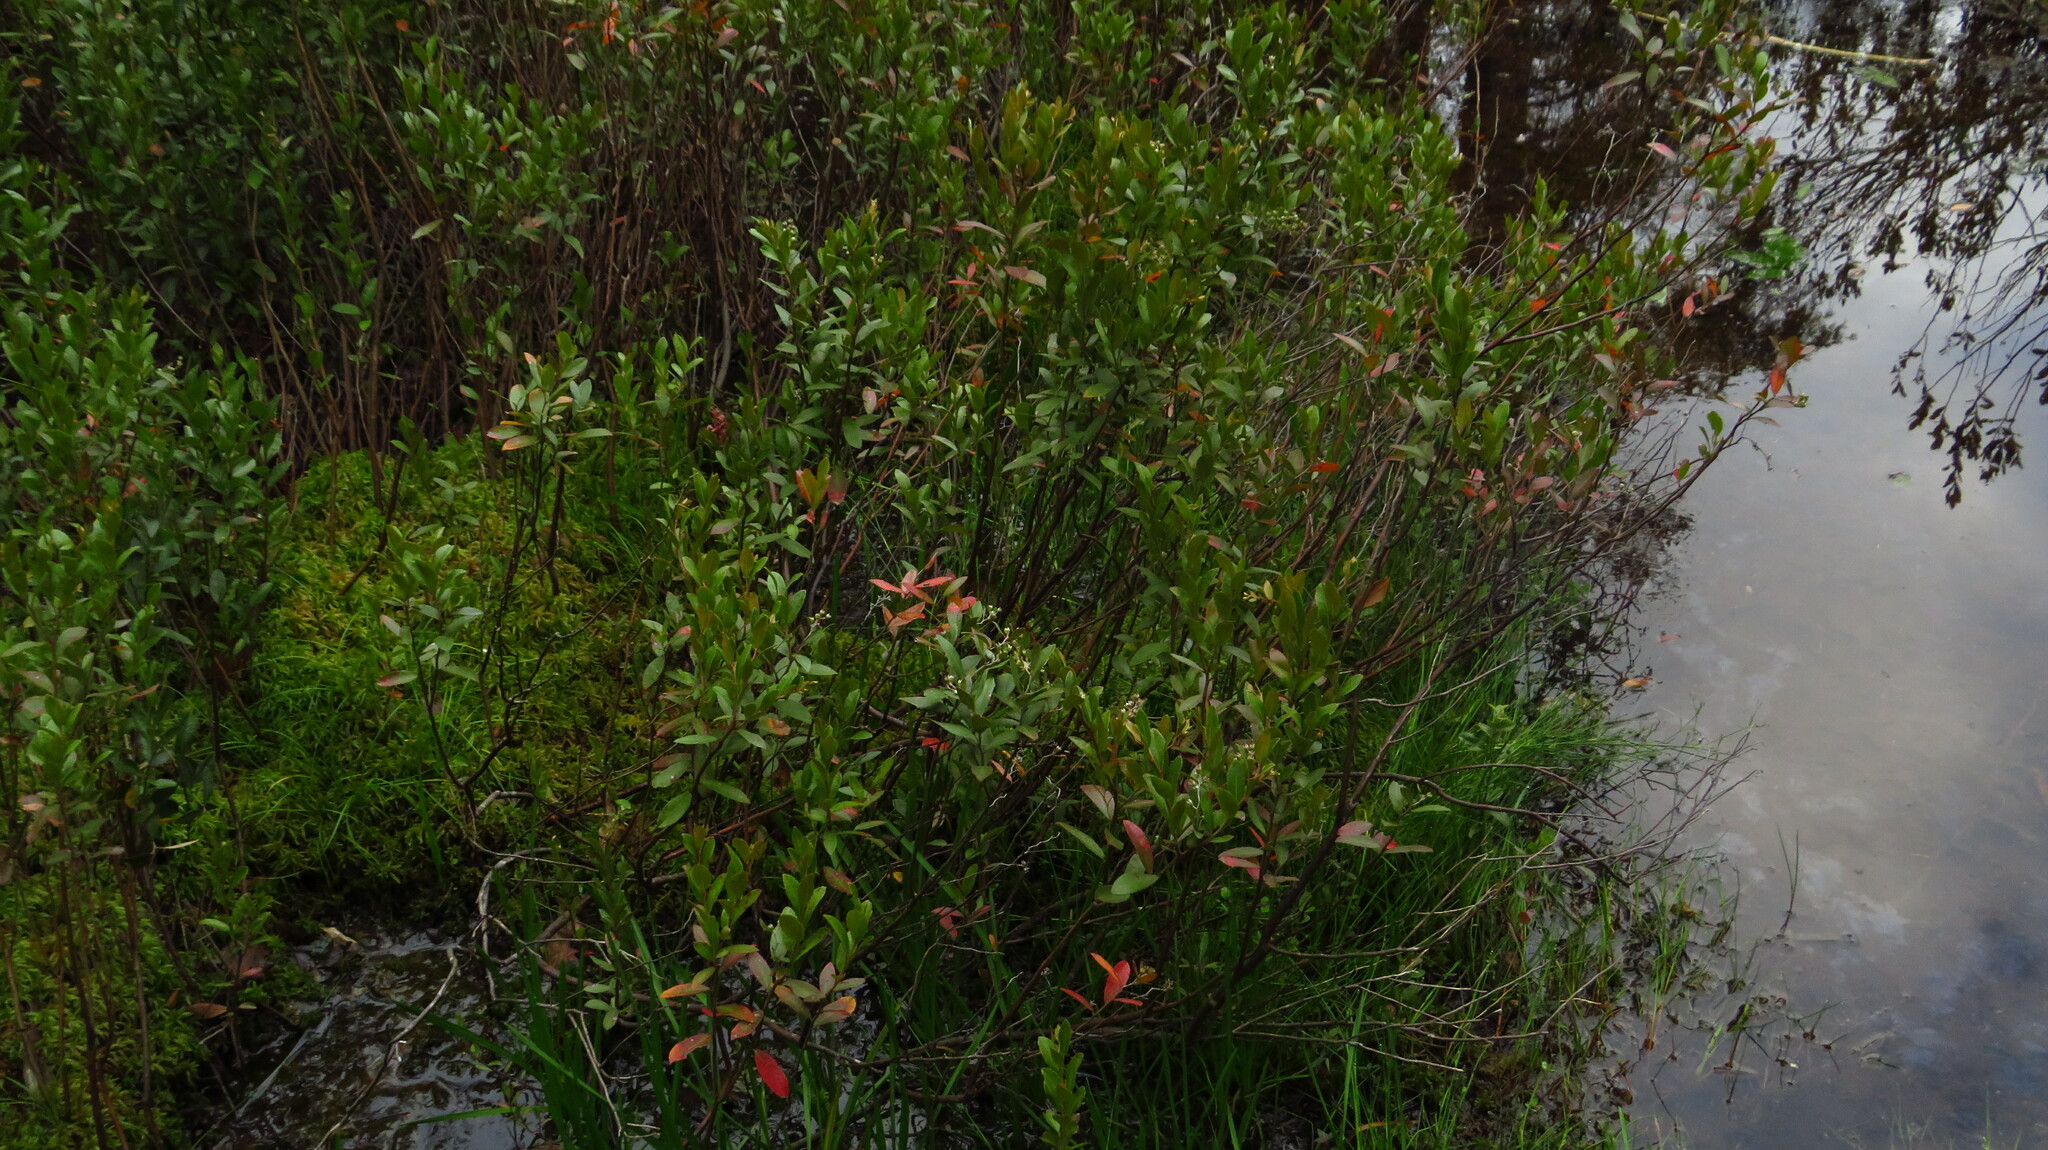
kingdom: Plantae
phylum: Tracheophyta
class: Magnoliopsida
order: Ericales
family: Ericaceae
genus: Chamaedaphne
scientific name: Chamaedaphne calyculata
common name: Leatherleaf
